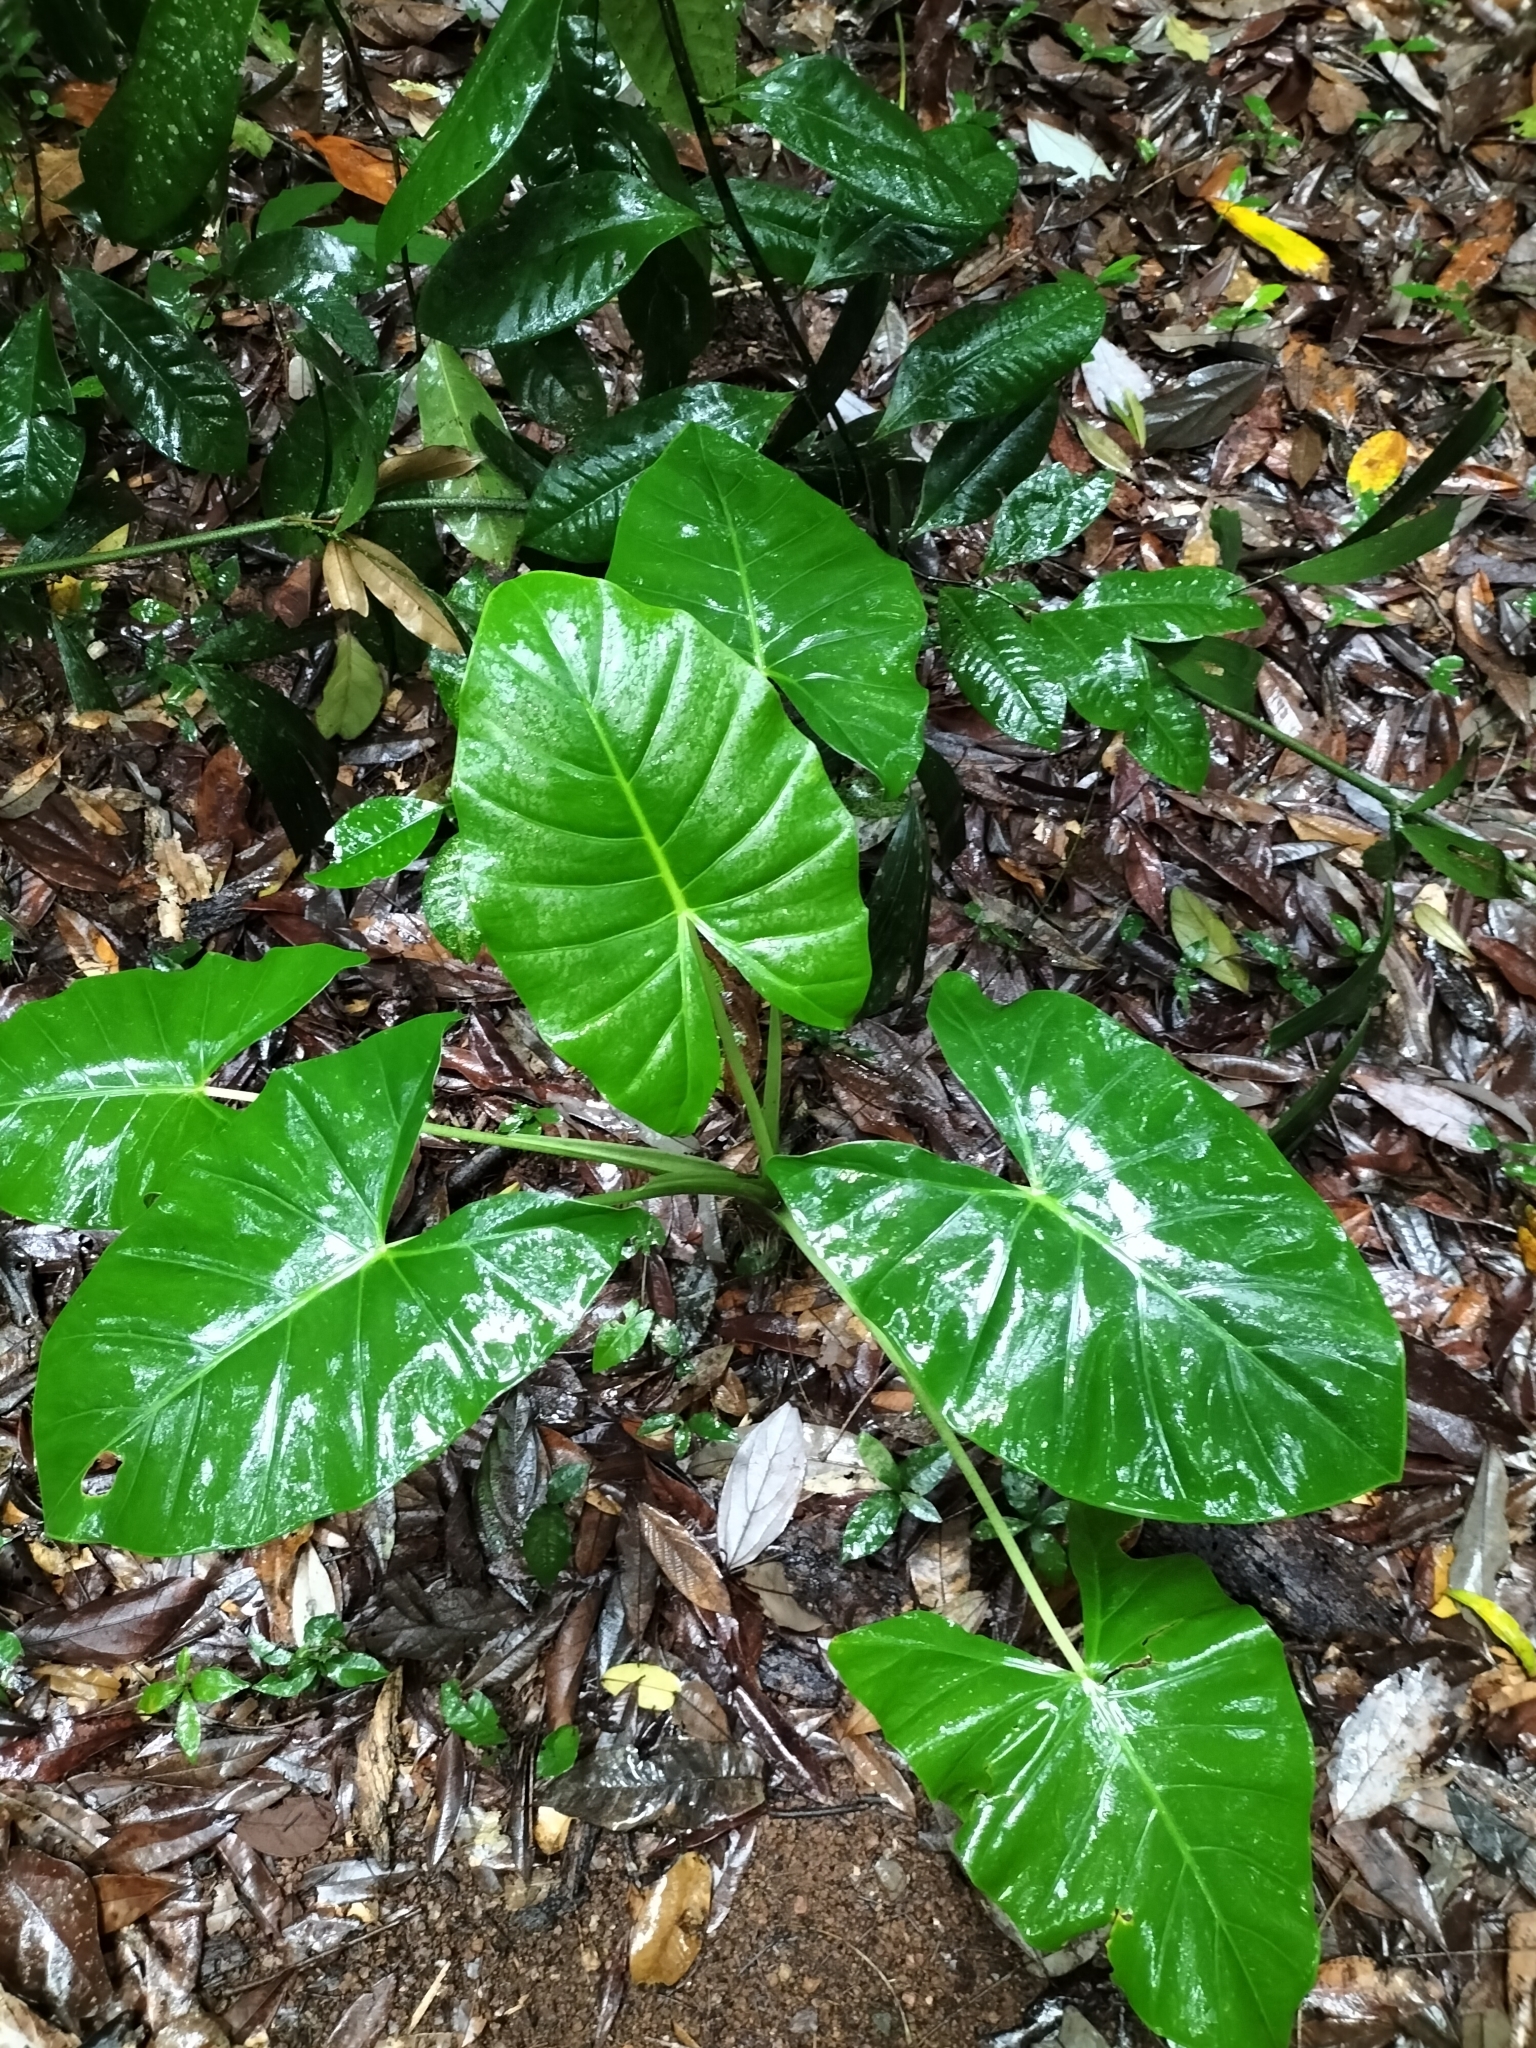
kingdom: Plantae
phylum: Tracheophyta
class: Liliopsida
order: Alismatales
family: Araceae
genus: Alocasia
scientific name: Alocasia brisbanensis
